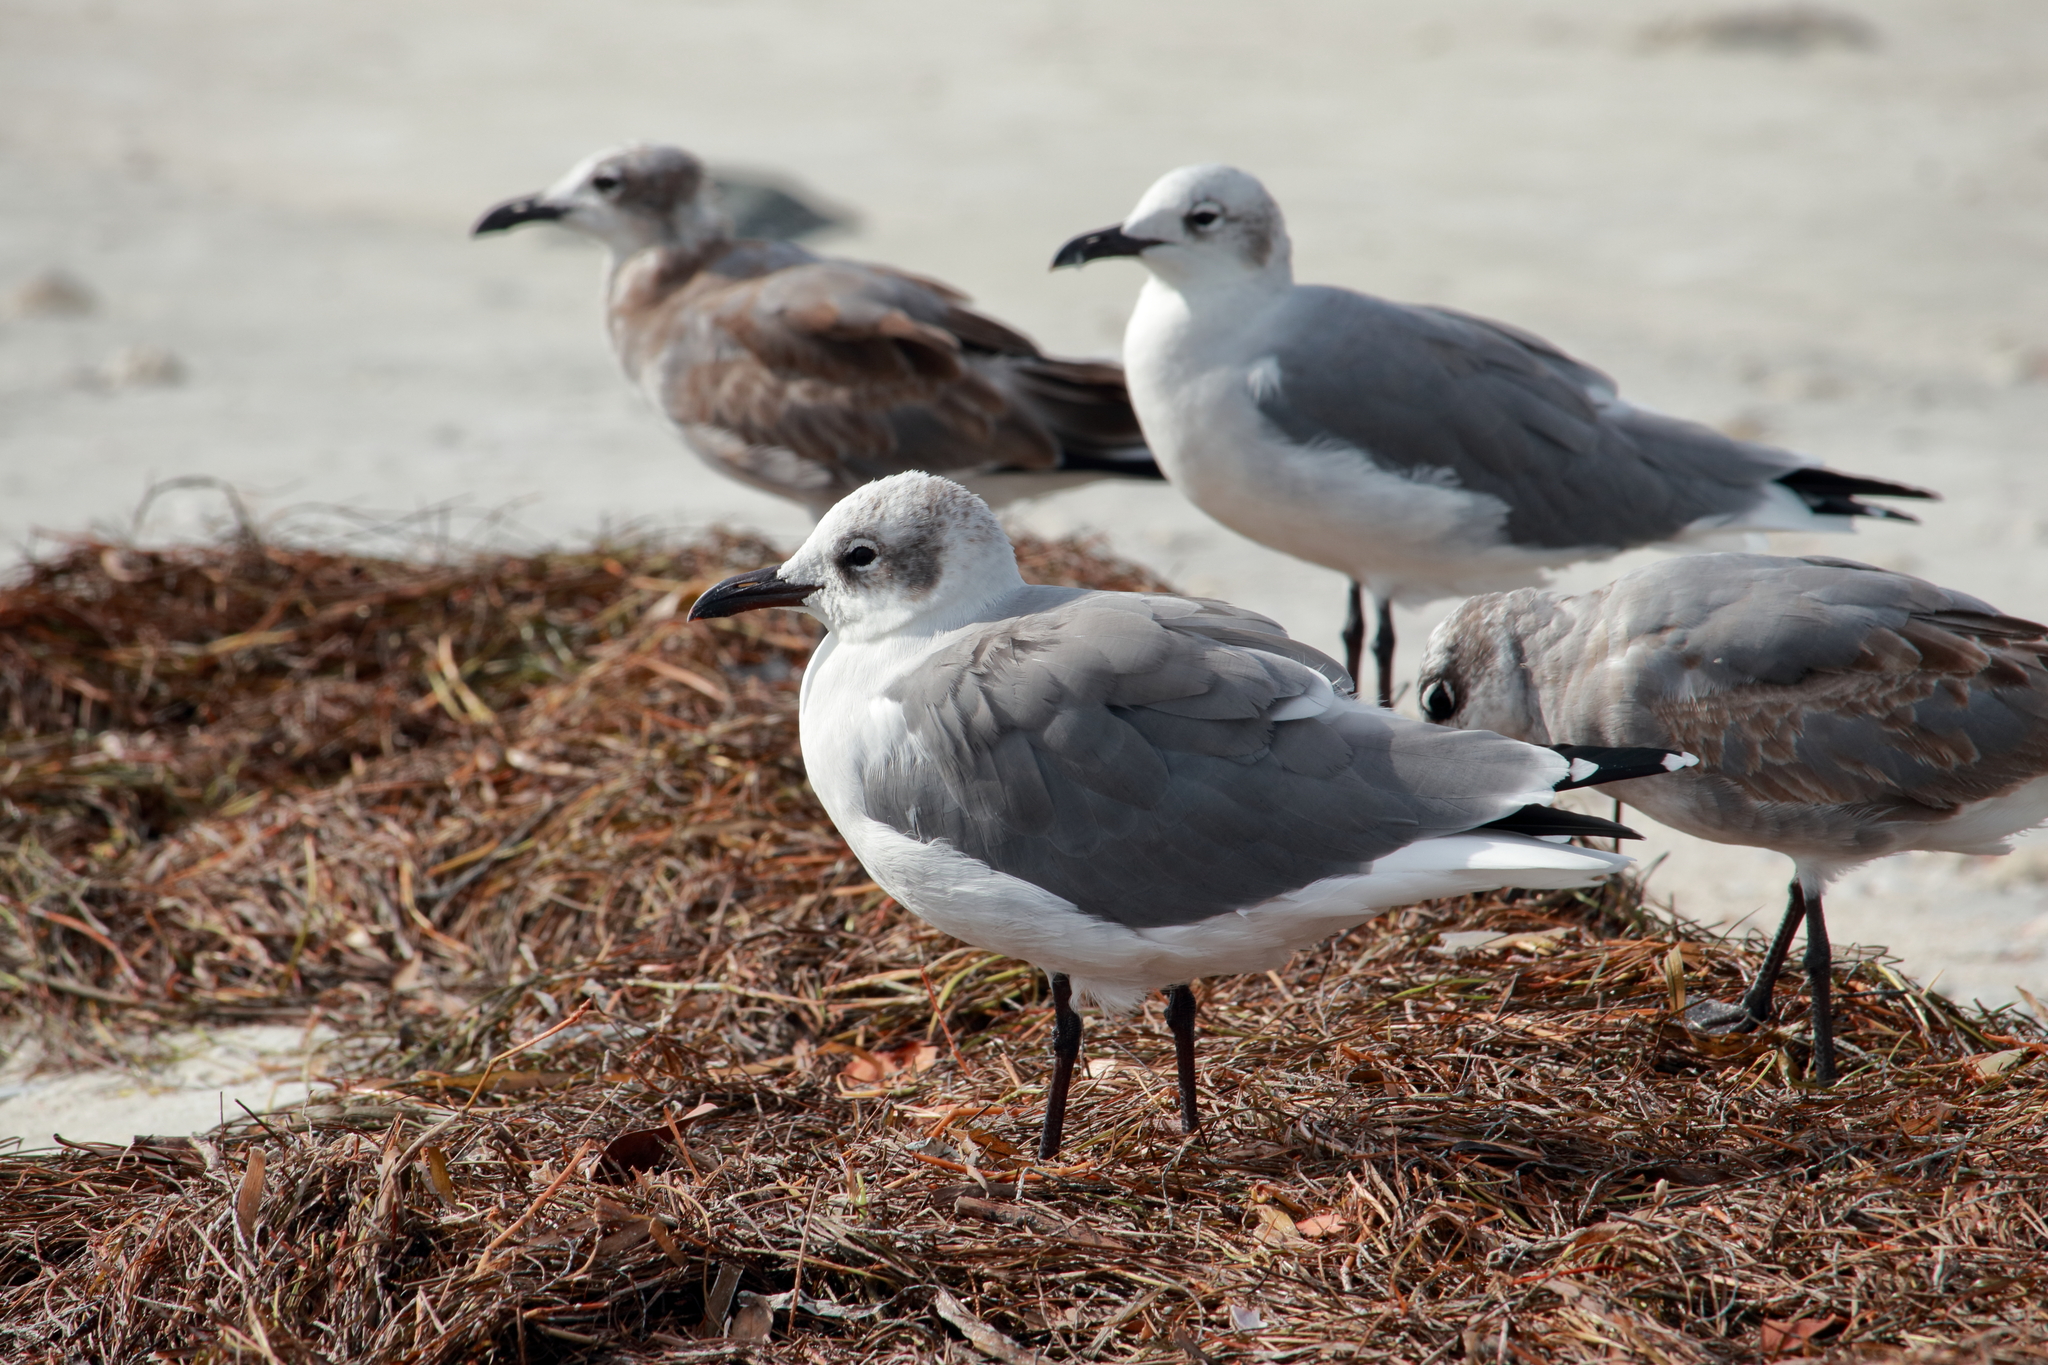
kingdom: Animalia
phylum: Chordata
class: Aves
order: Charadriiformes
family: Laridae
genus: Leucophaeus
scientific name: Leucophaeus atricilla
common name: Laughing gull
